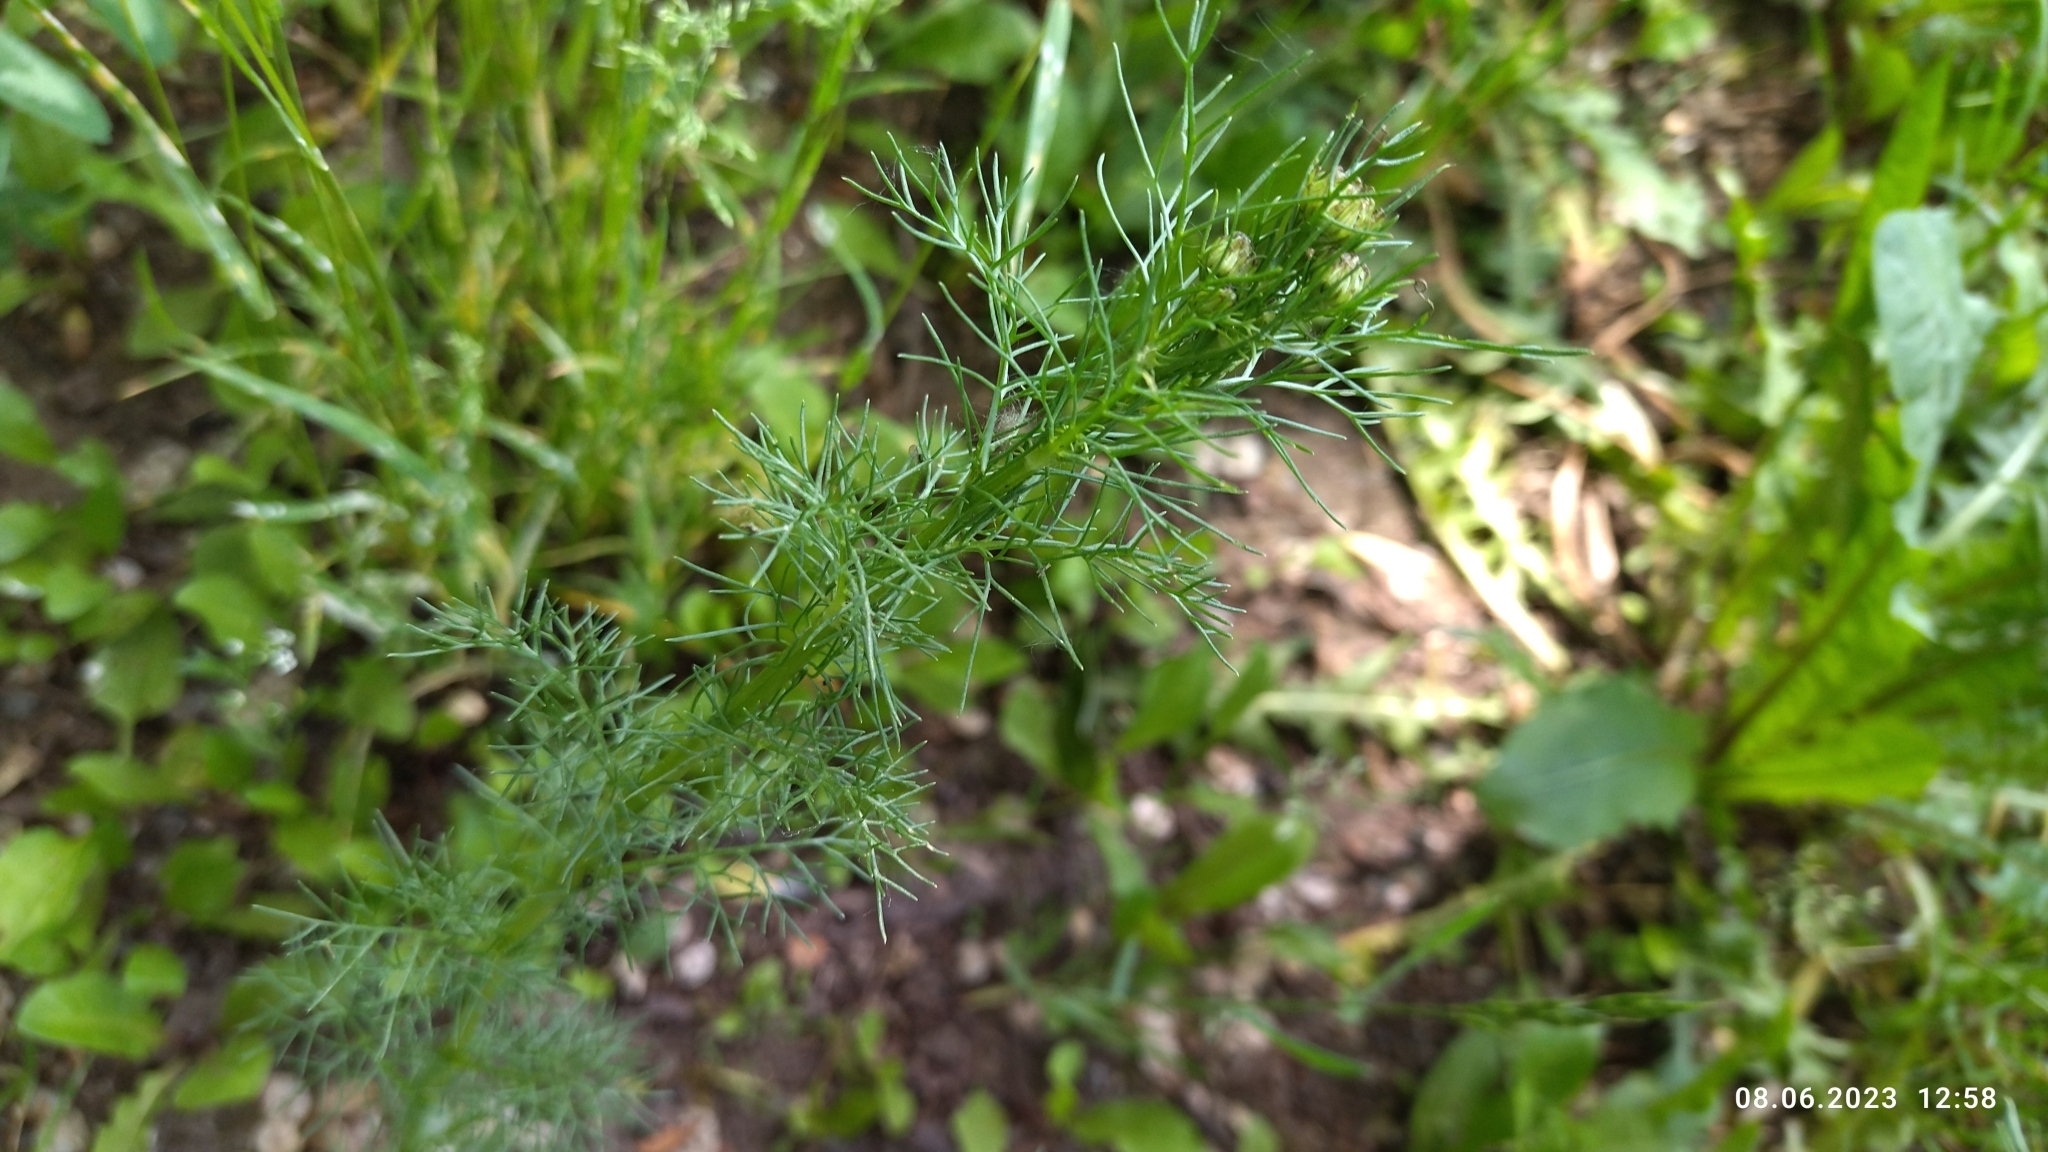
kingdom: Plantae
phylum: Tracheophyta
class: Magnoliopsida
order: Asterales
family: Asteraceae
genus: Tripleurospermum
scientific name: Tripleurospermum inodorum
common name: Scentless mayweed
